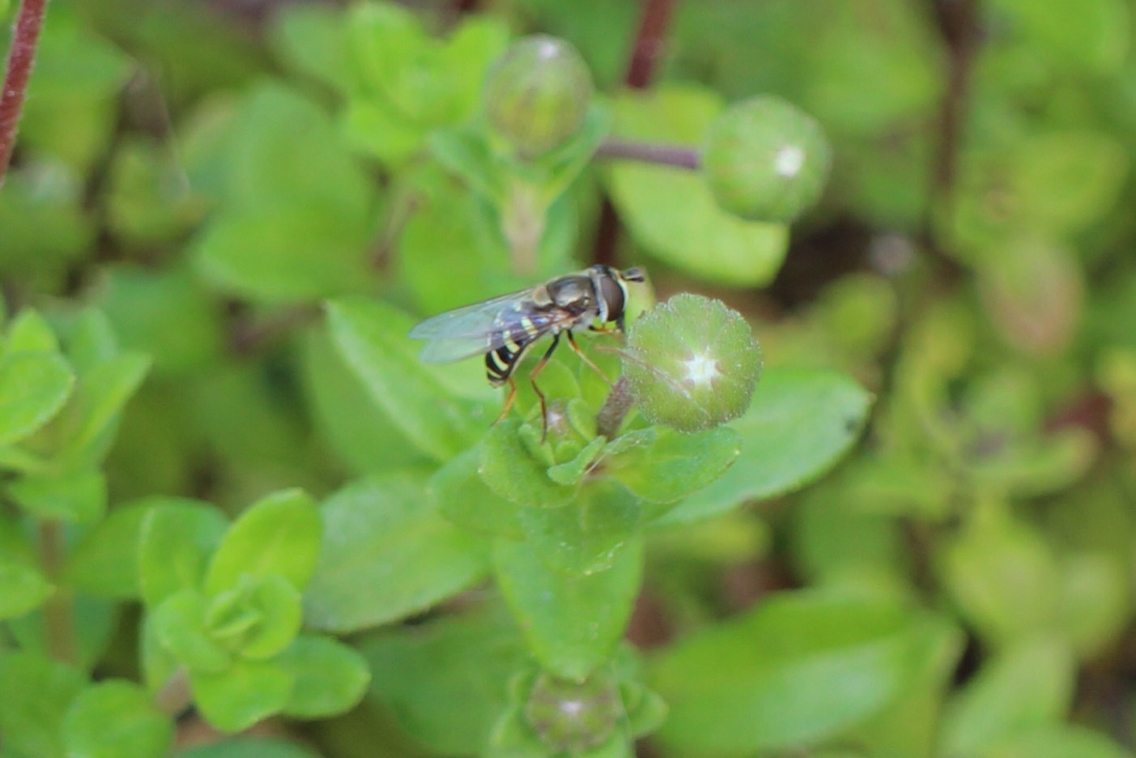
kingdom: Animalia
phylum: Arthropoda
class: Insecta
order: Diptera
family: Syrphidae
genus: Eupeodes
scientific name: Eupeodes volucris
